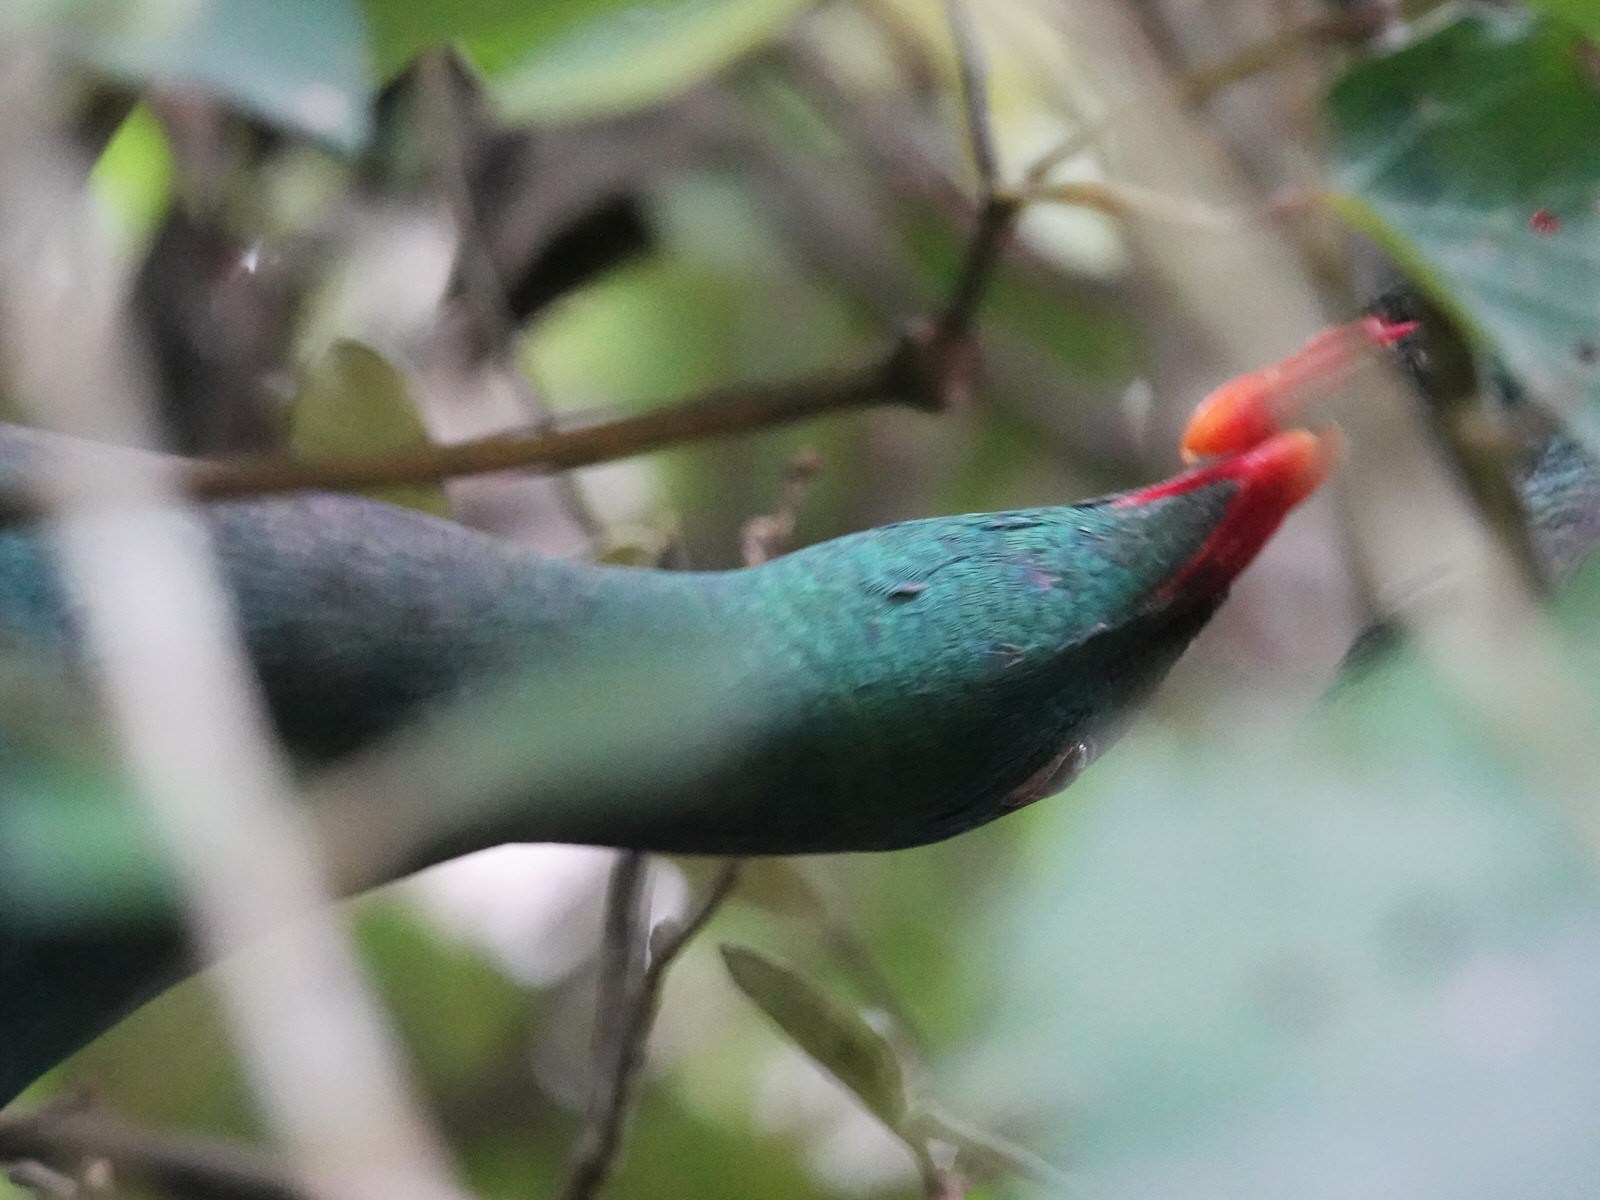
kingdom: Animalia
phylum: Chordata
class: Aves
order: Columbiformes
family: Columbidae
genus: Hemiphaga
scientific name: Hemiphaga novaeseelandiae
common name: New zealand pigeon
